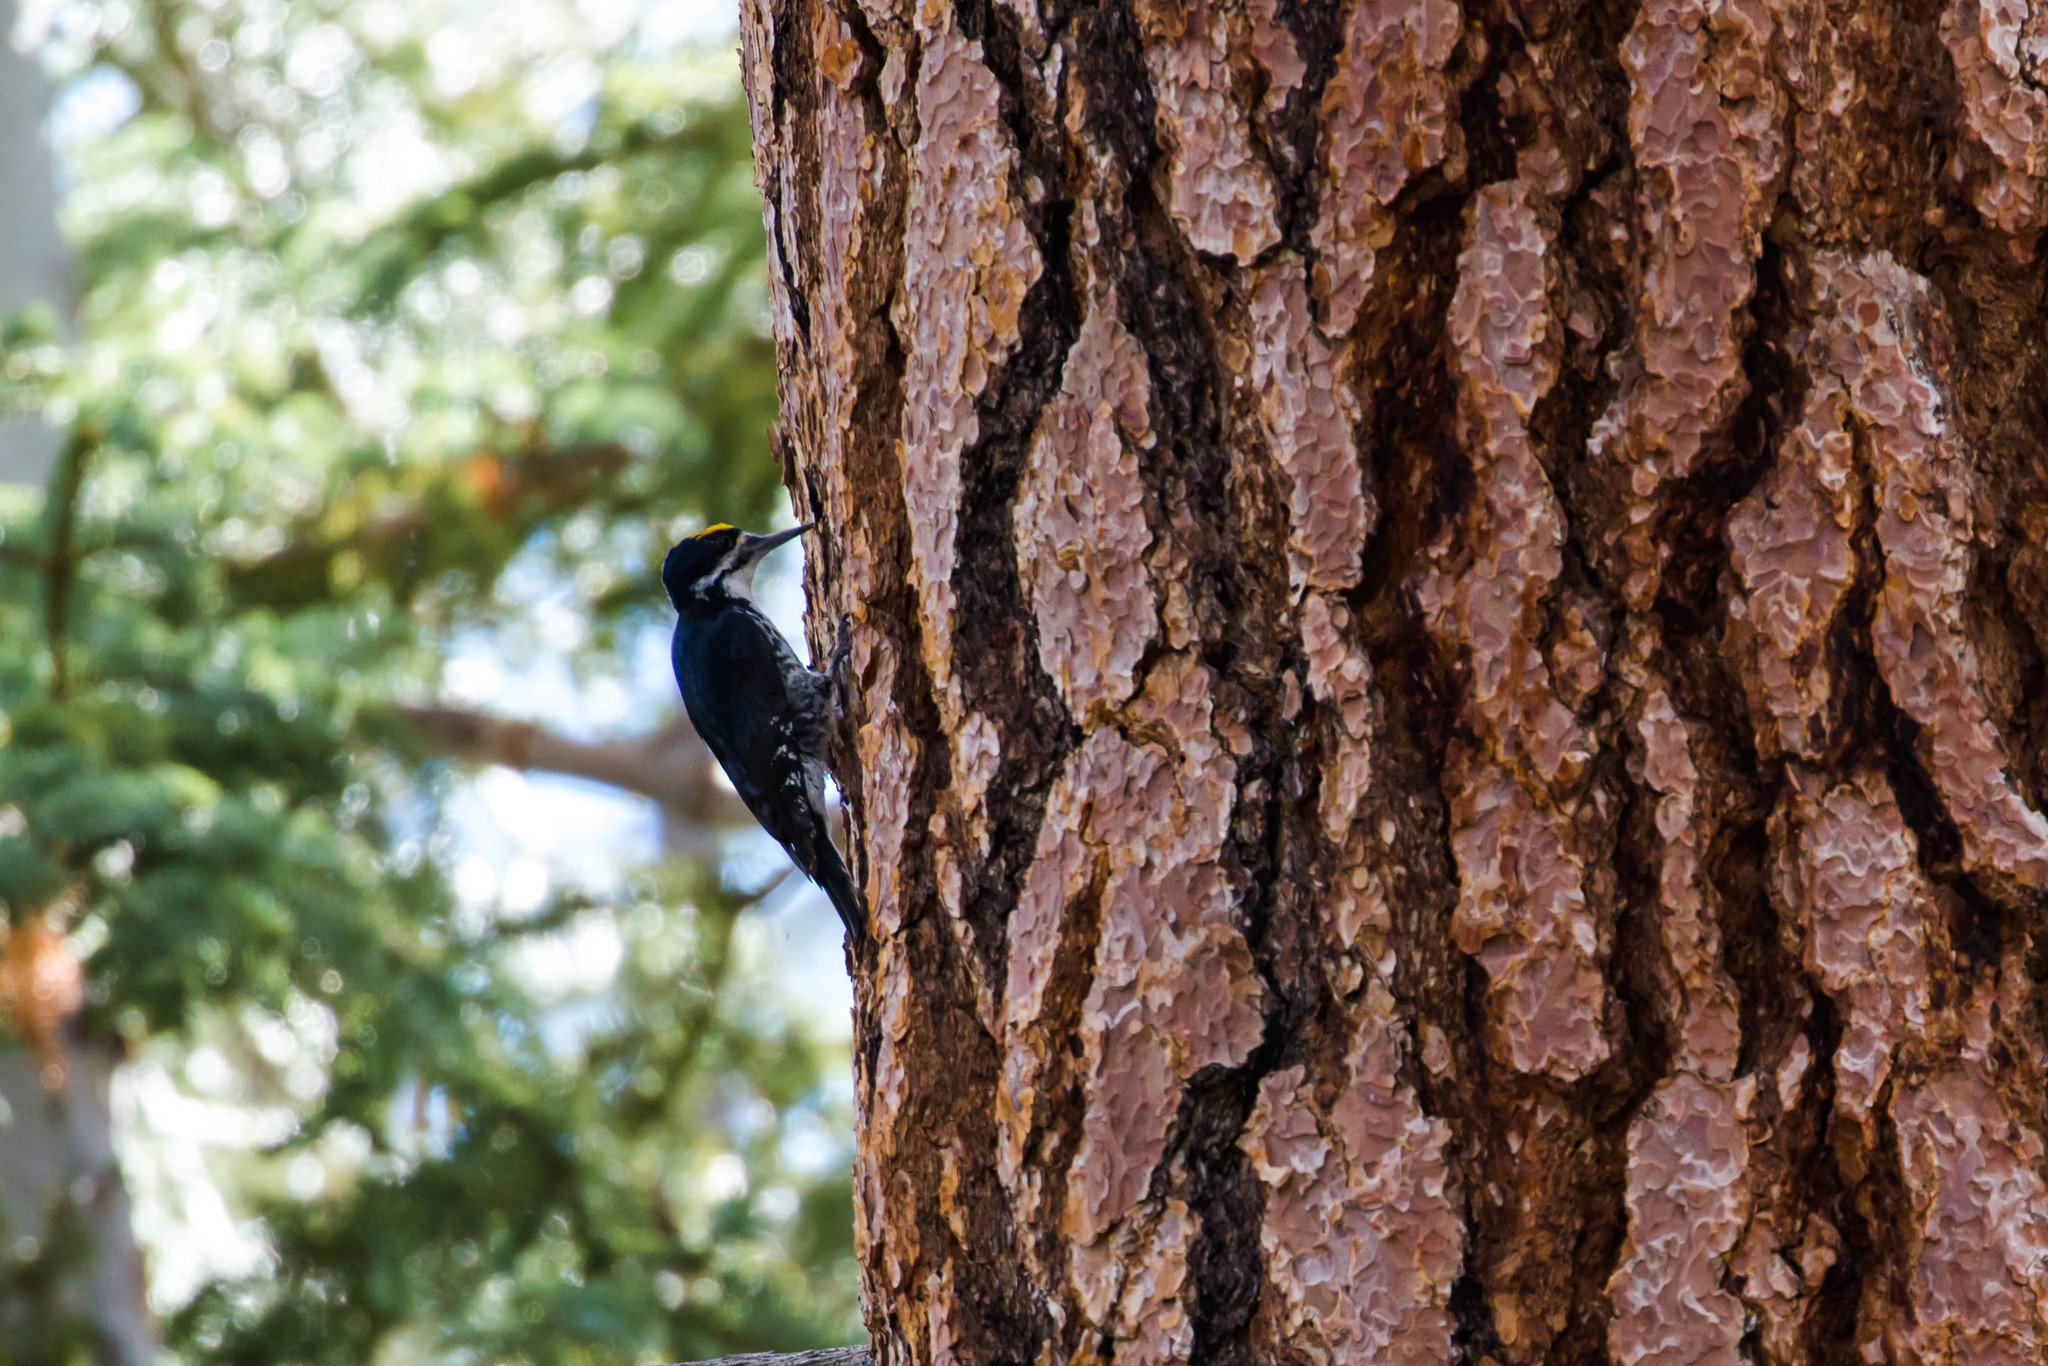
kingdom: Animalia
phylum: Chordata
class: Aves
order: Piciformes
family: Picidae
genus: Picoides
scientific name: Picoides arcticus
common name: Black-backed woodpecker
